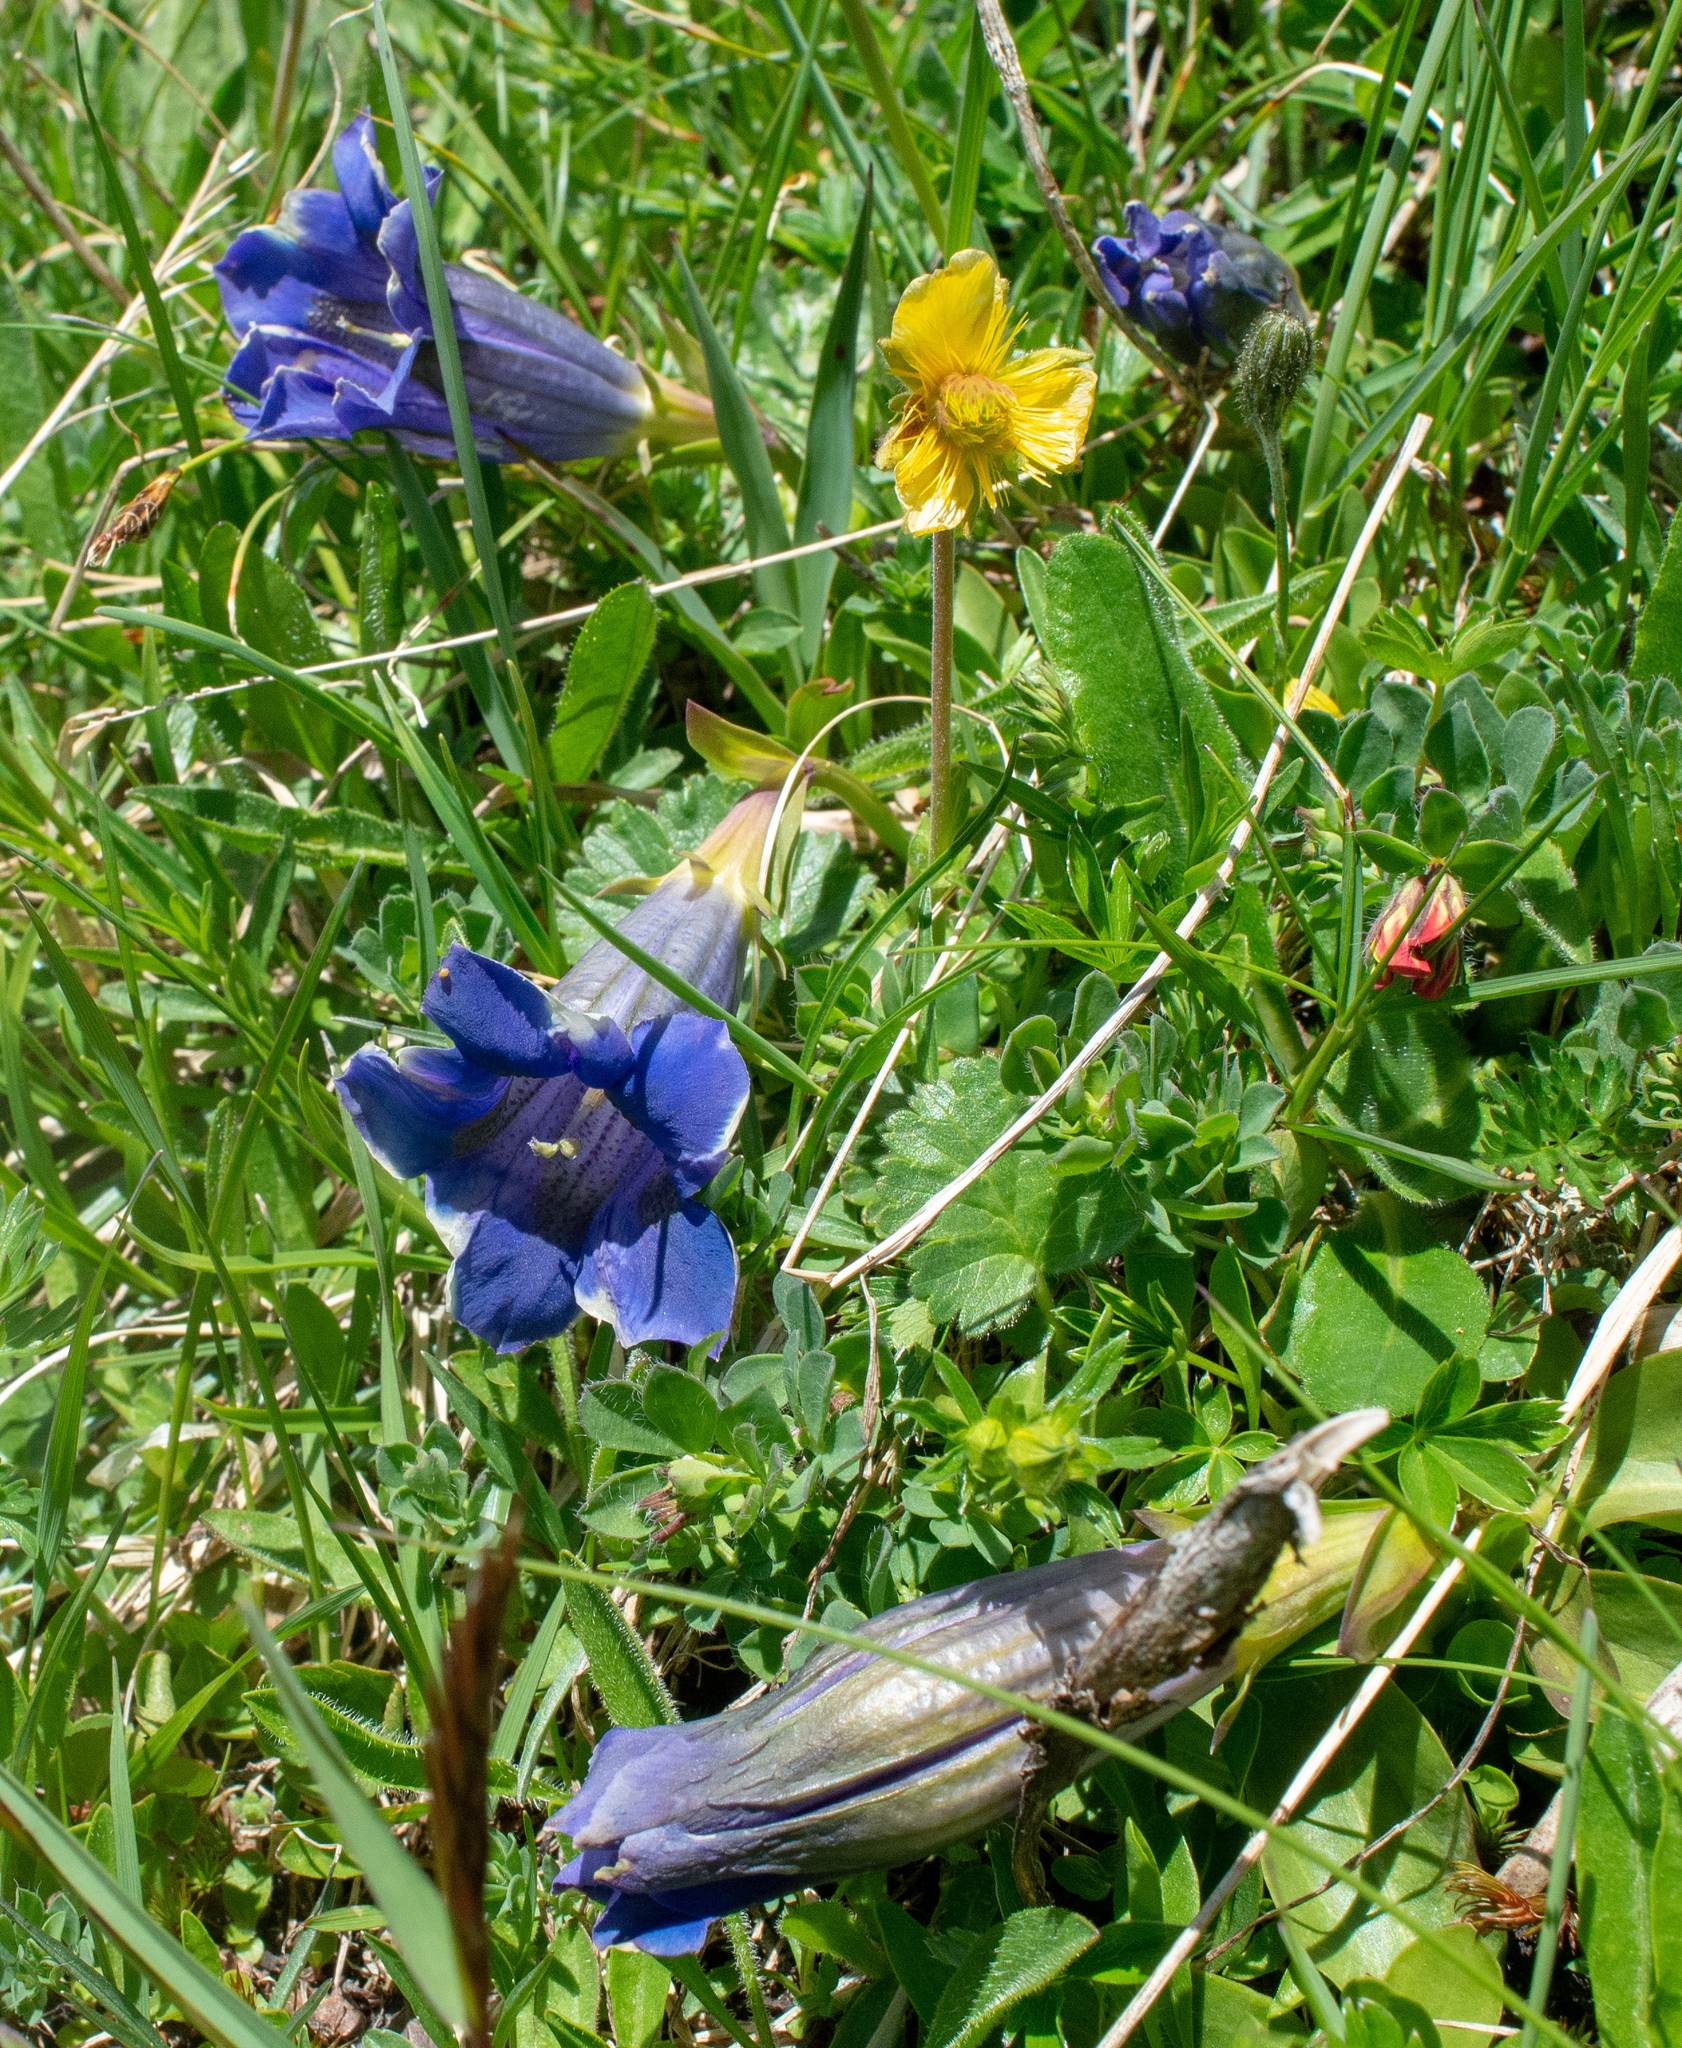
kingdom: Plantae
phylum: Tracheophyta
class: Magnoliopsida
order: Gentianales
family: Gentianaceae
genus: Gentiana
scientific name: Gentiana acaulis
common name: Trumpet gentian
